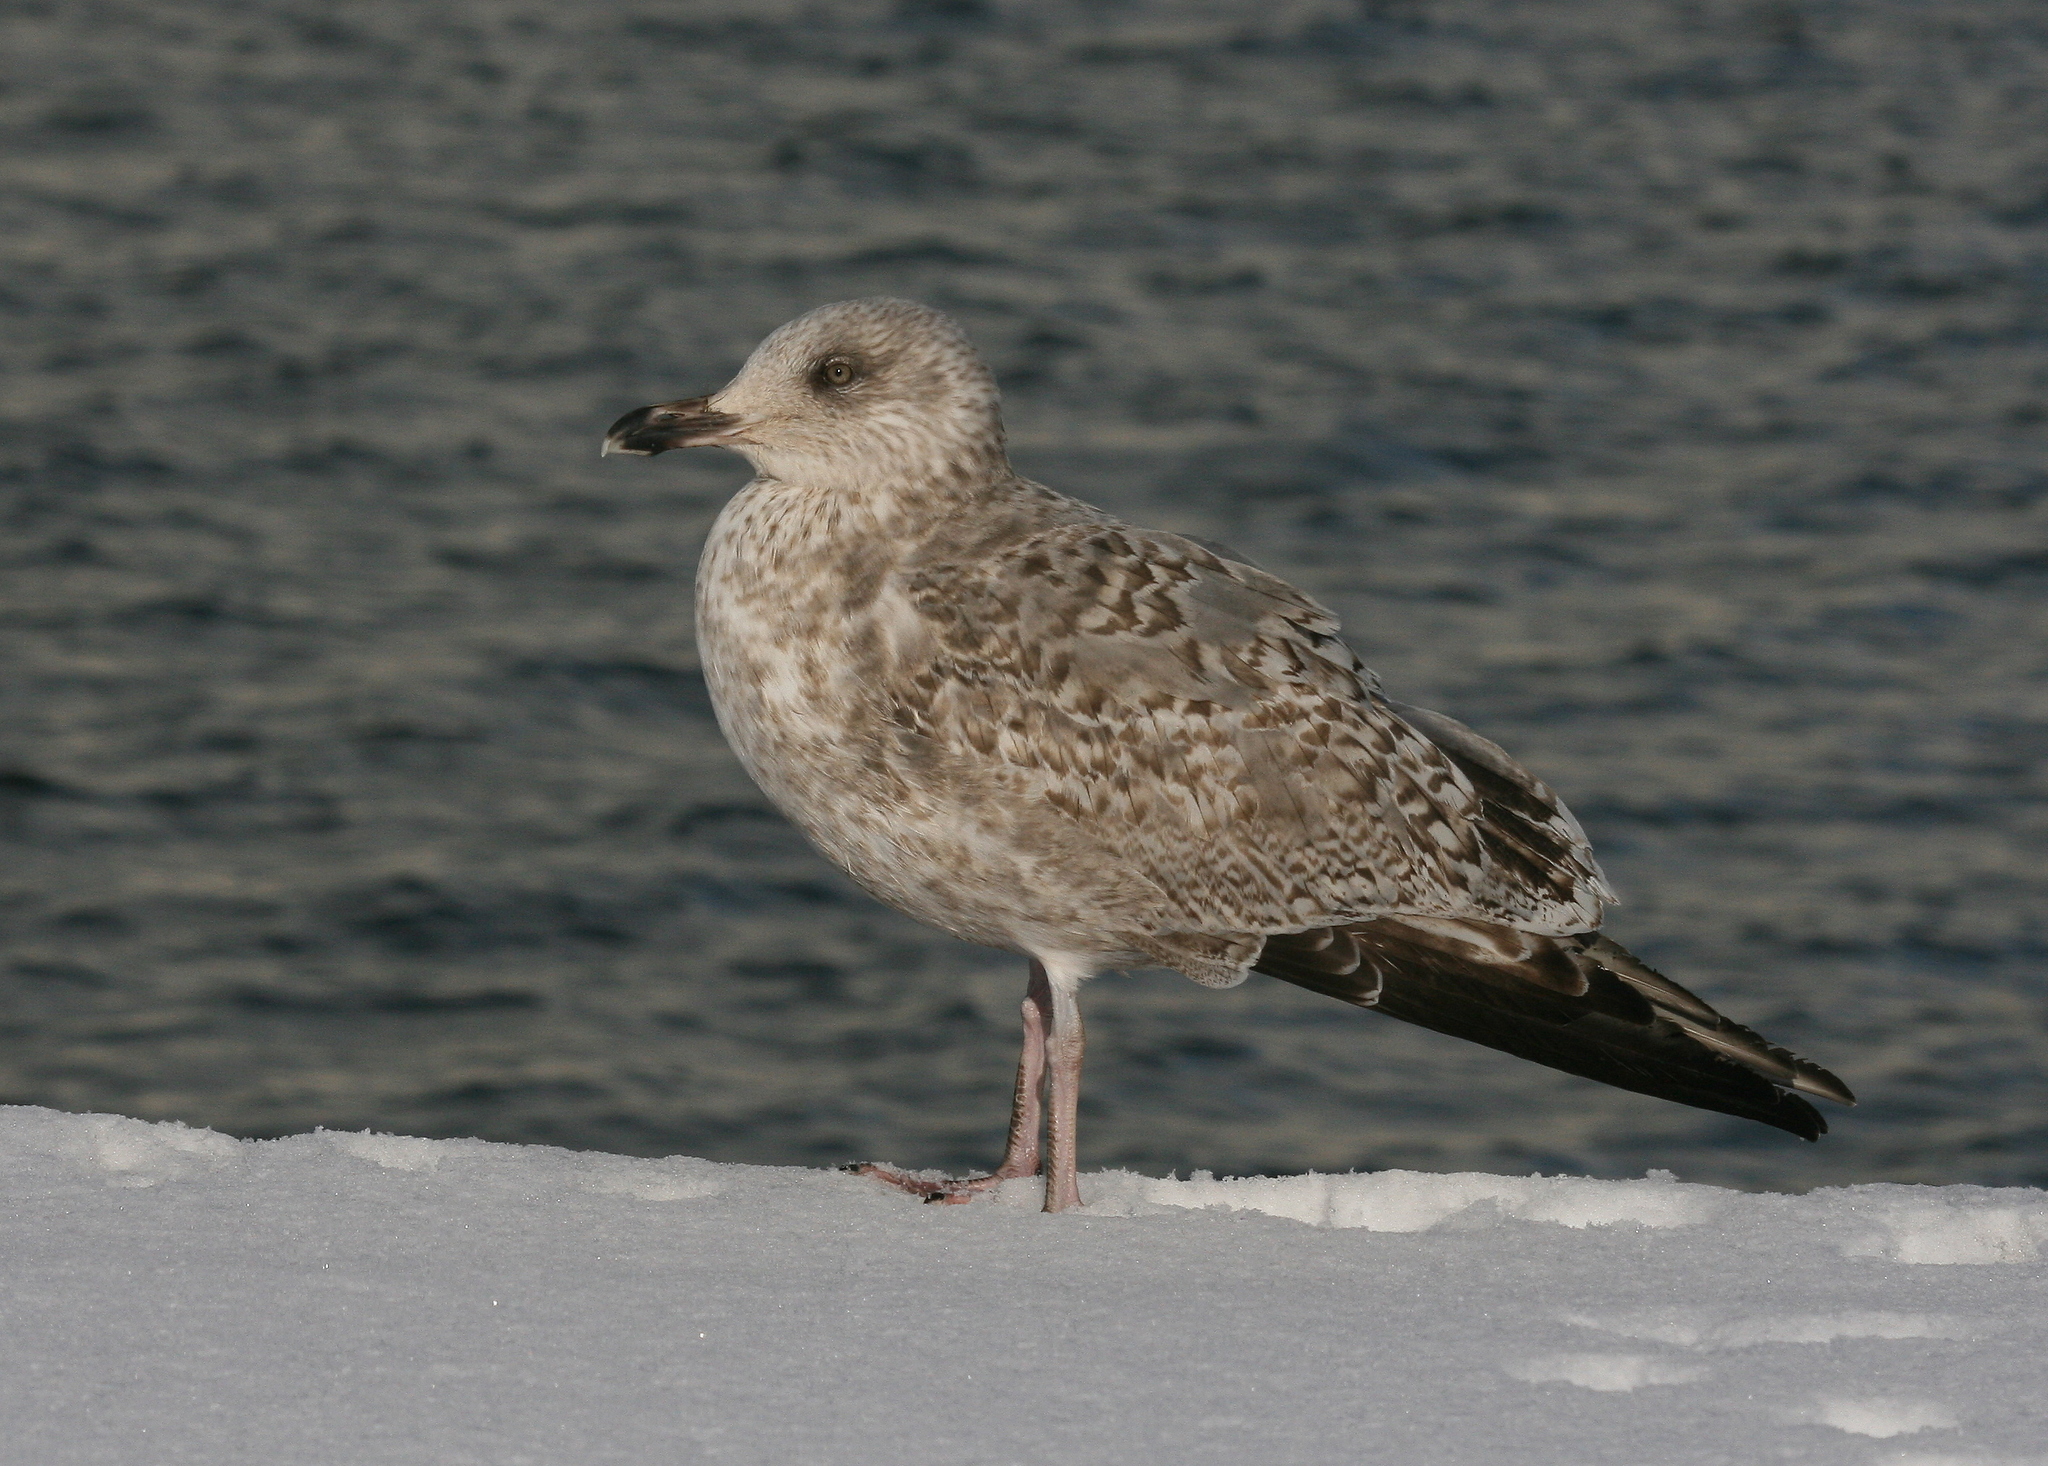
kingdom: Animalia
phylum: Chordata
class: Aves
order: Charadriiformes
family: Laridae
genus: Larus
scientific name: Larus argentatus
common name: Herring gull
